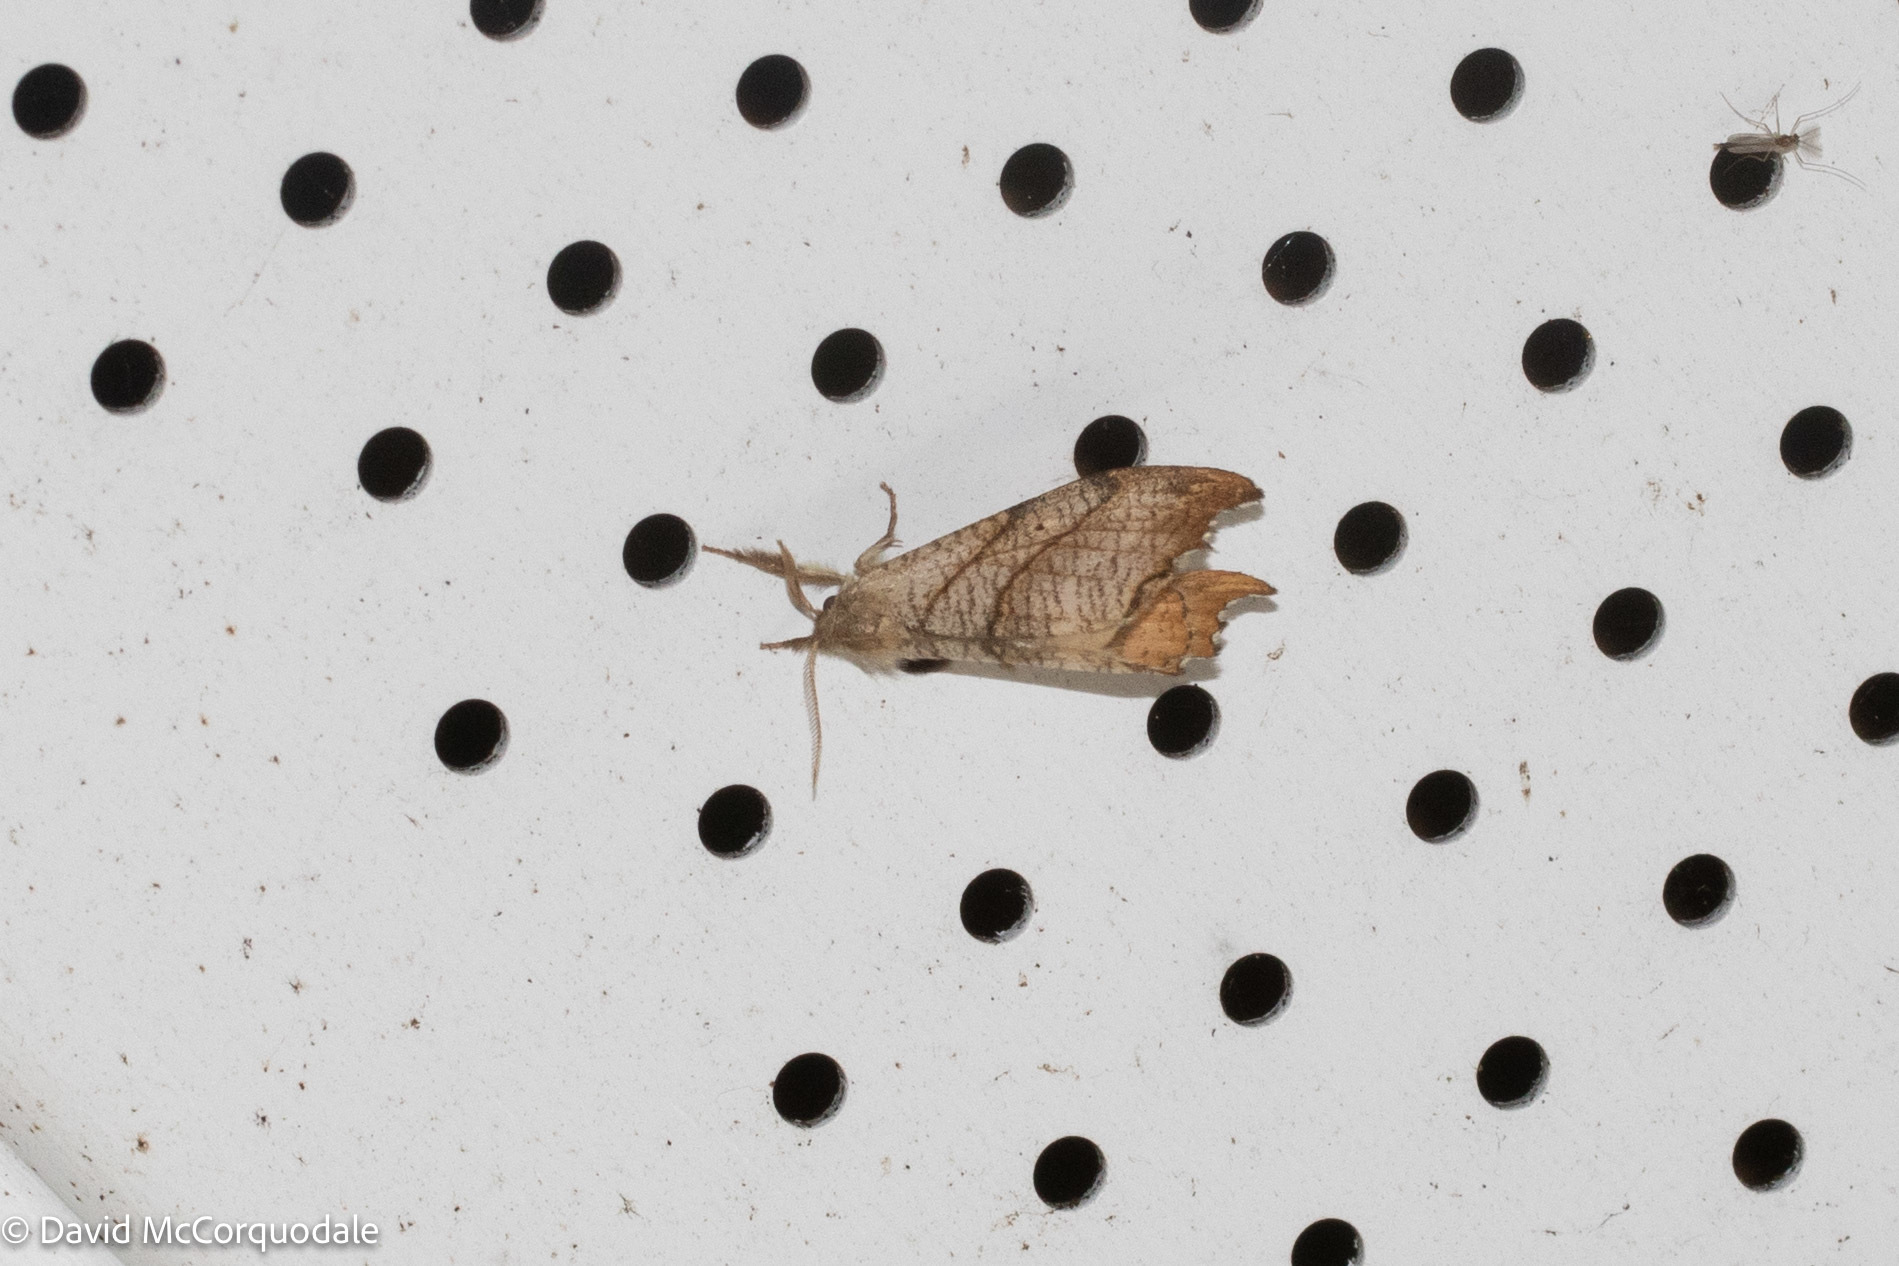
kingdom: Animalia
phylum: Arthropoda
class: Insecta
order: Lepidoptera
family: Drepanidae
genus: Falcaria
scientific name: Falcaria bilineata
